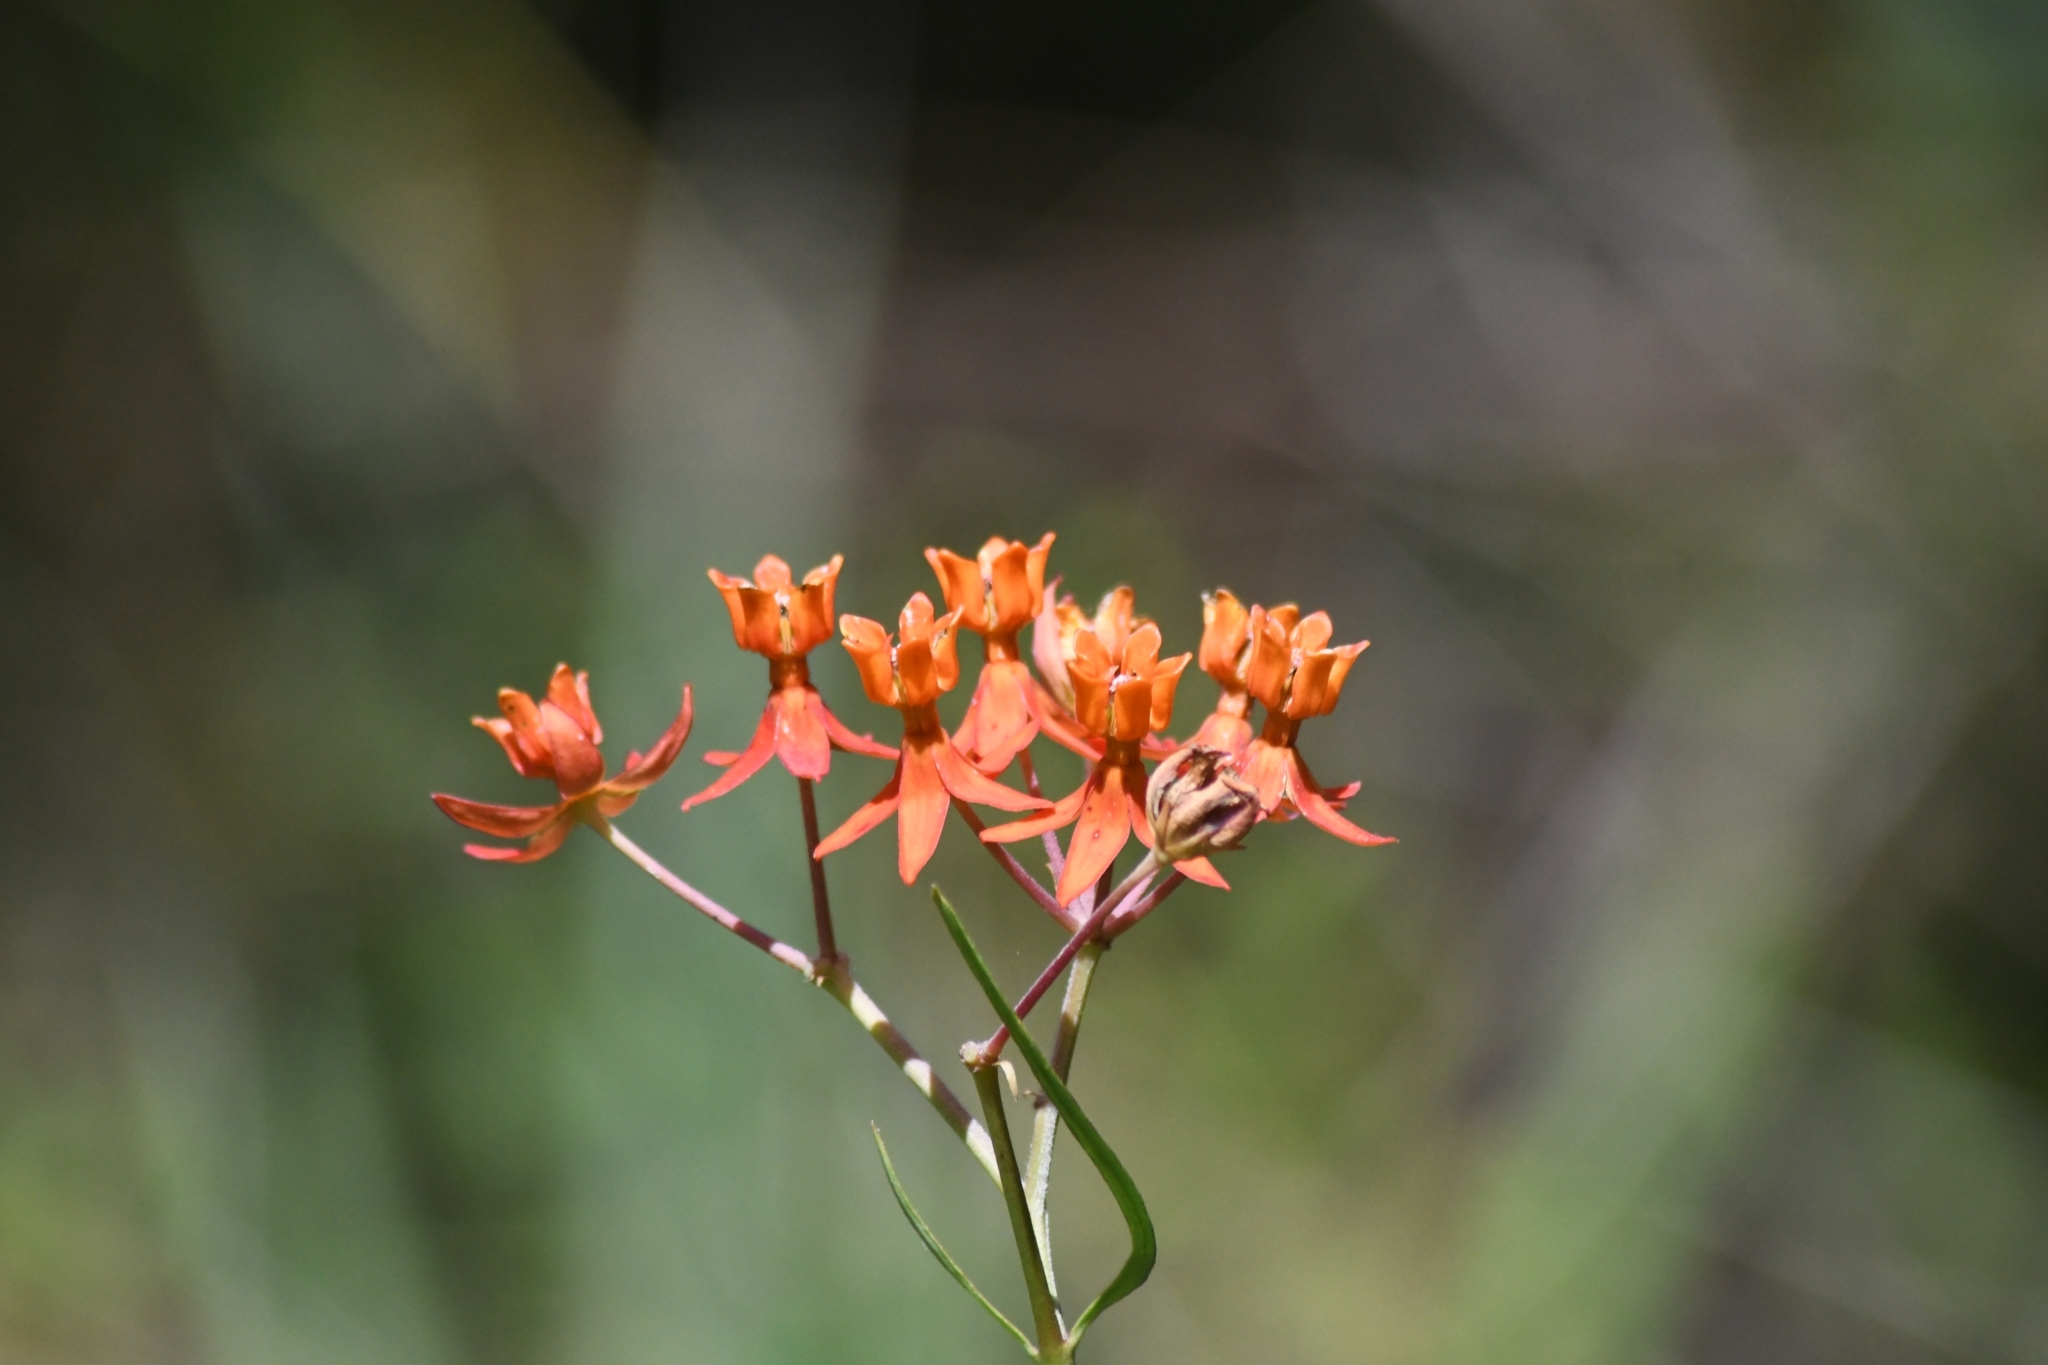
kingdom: Plantae
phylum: Tracheophyta
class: Magnoliopsida
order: Gentianales
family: Apocynaceae
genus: Asclepias
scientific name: Asclepias lanceolata
